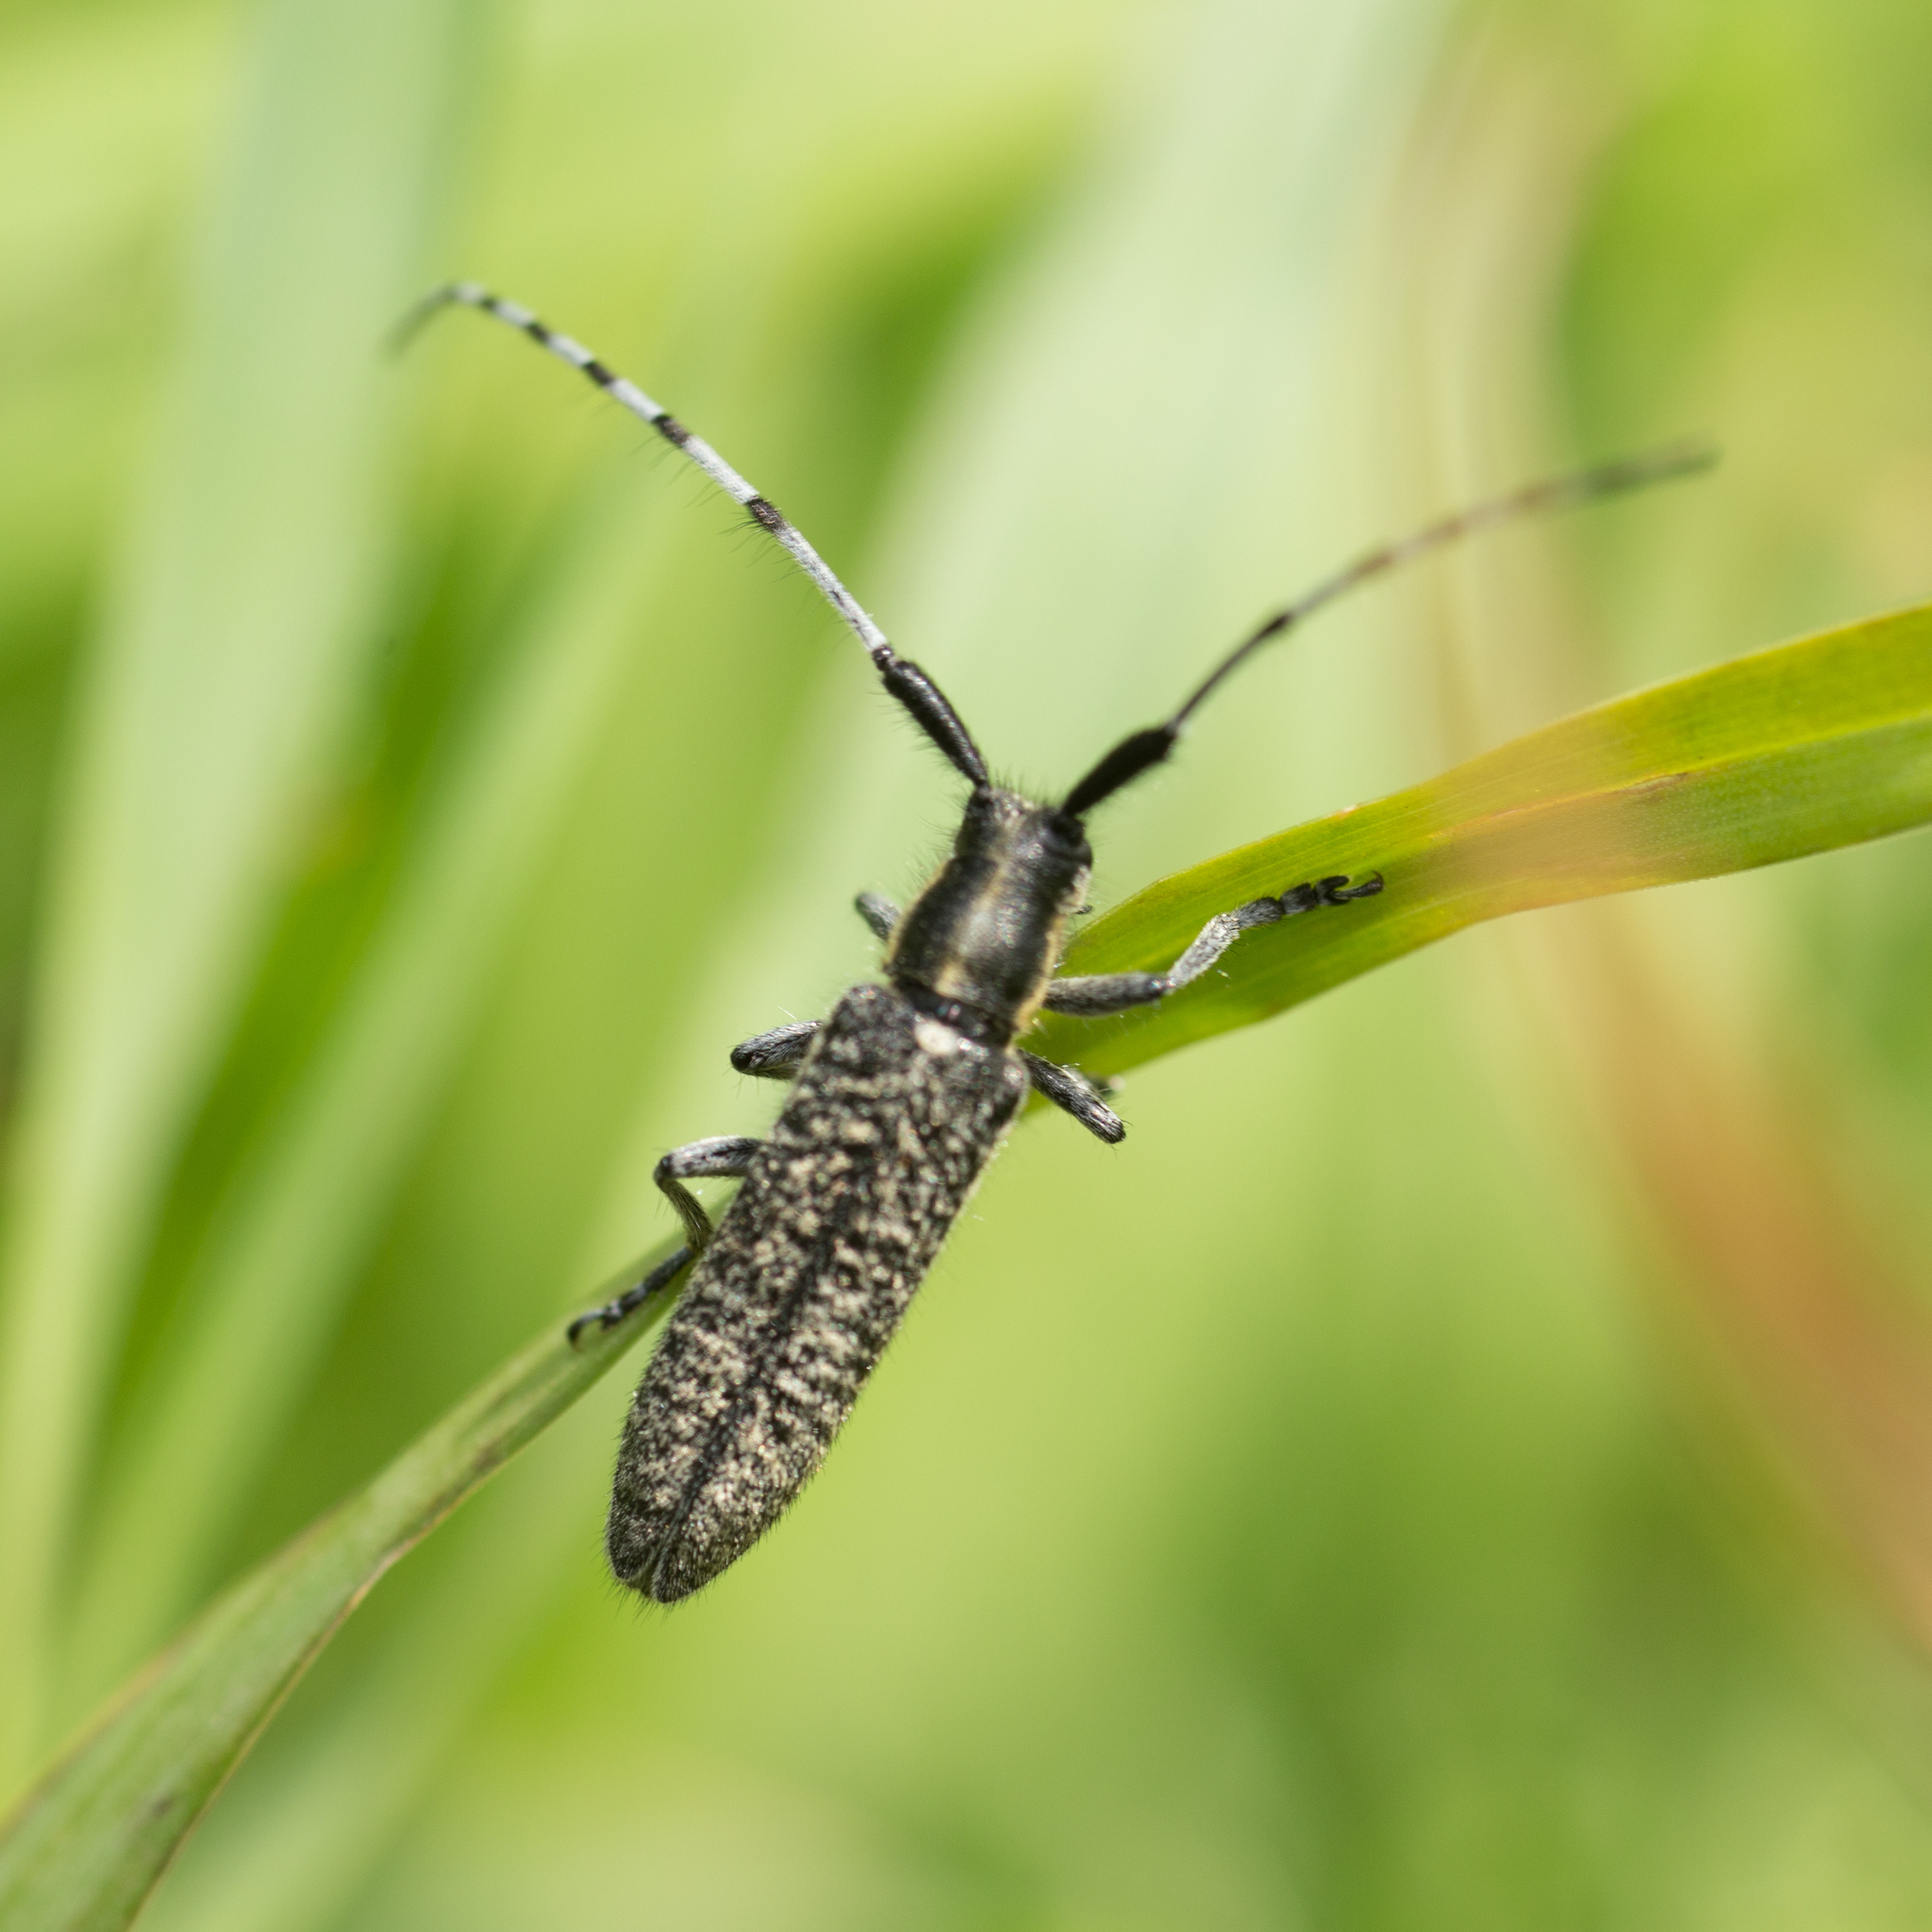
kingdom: Animalia
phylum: Arthropoda
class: Insecta
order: Coleoptera
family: Cerambycidae
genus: Agapanthia
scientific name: Agapanthia villosoviridescens
